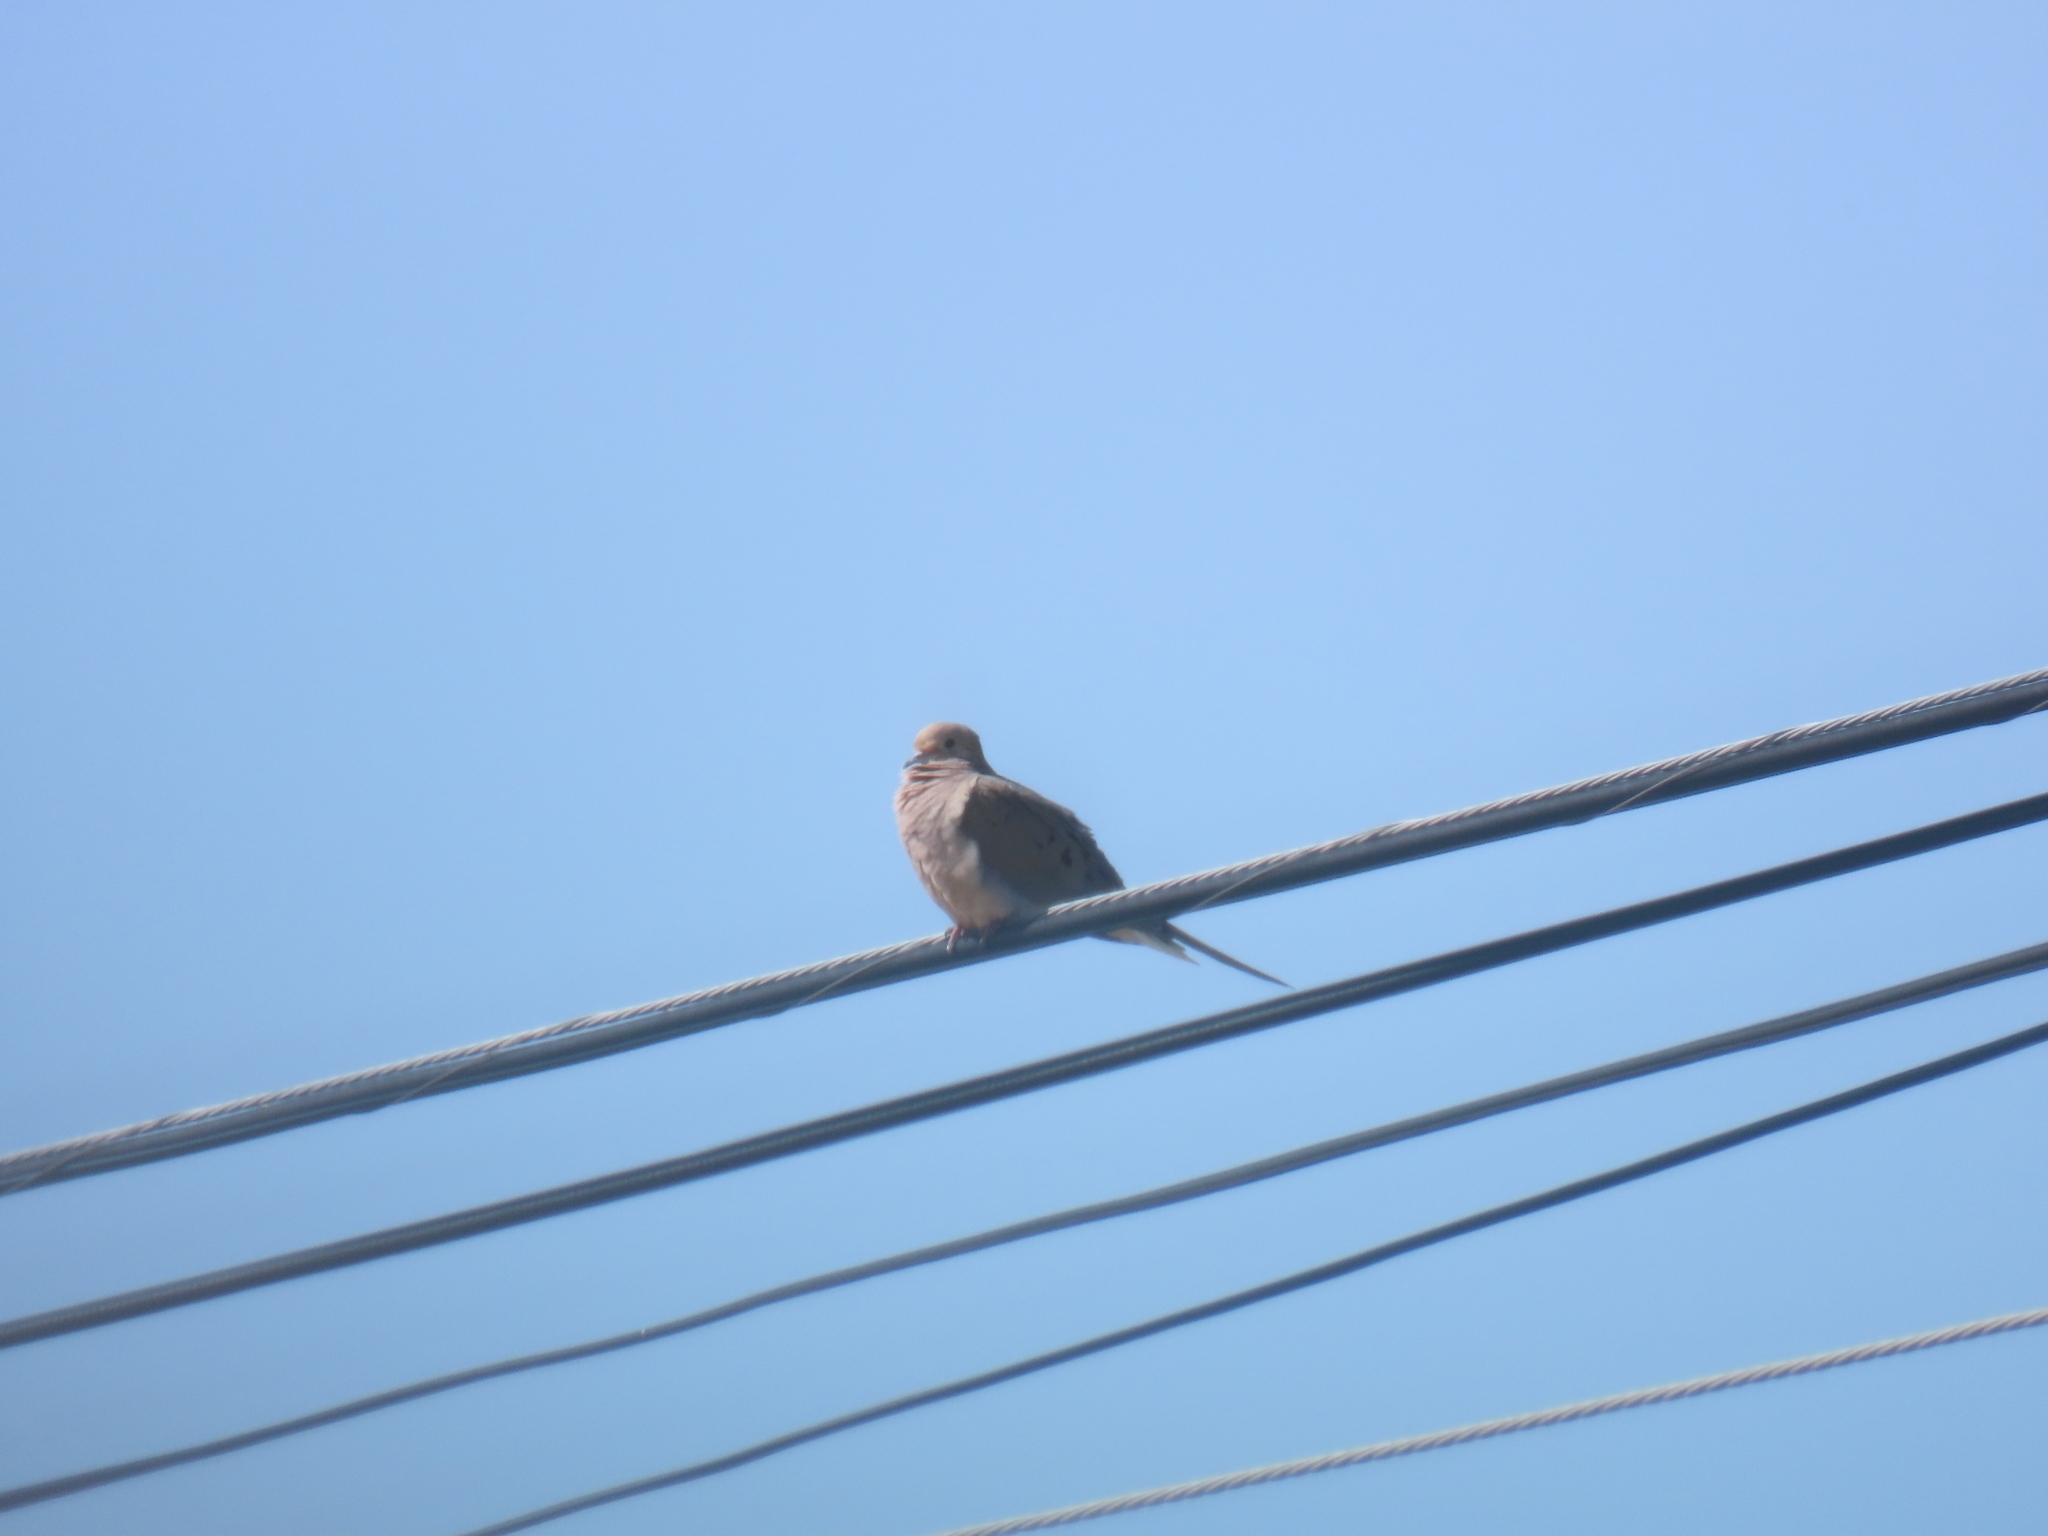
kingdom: Animalia
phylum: Chordata
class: Aves
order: Columbiformes
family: Columbidae
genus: Zenaida
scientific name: Zenaida macroura
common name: Mourning dove
